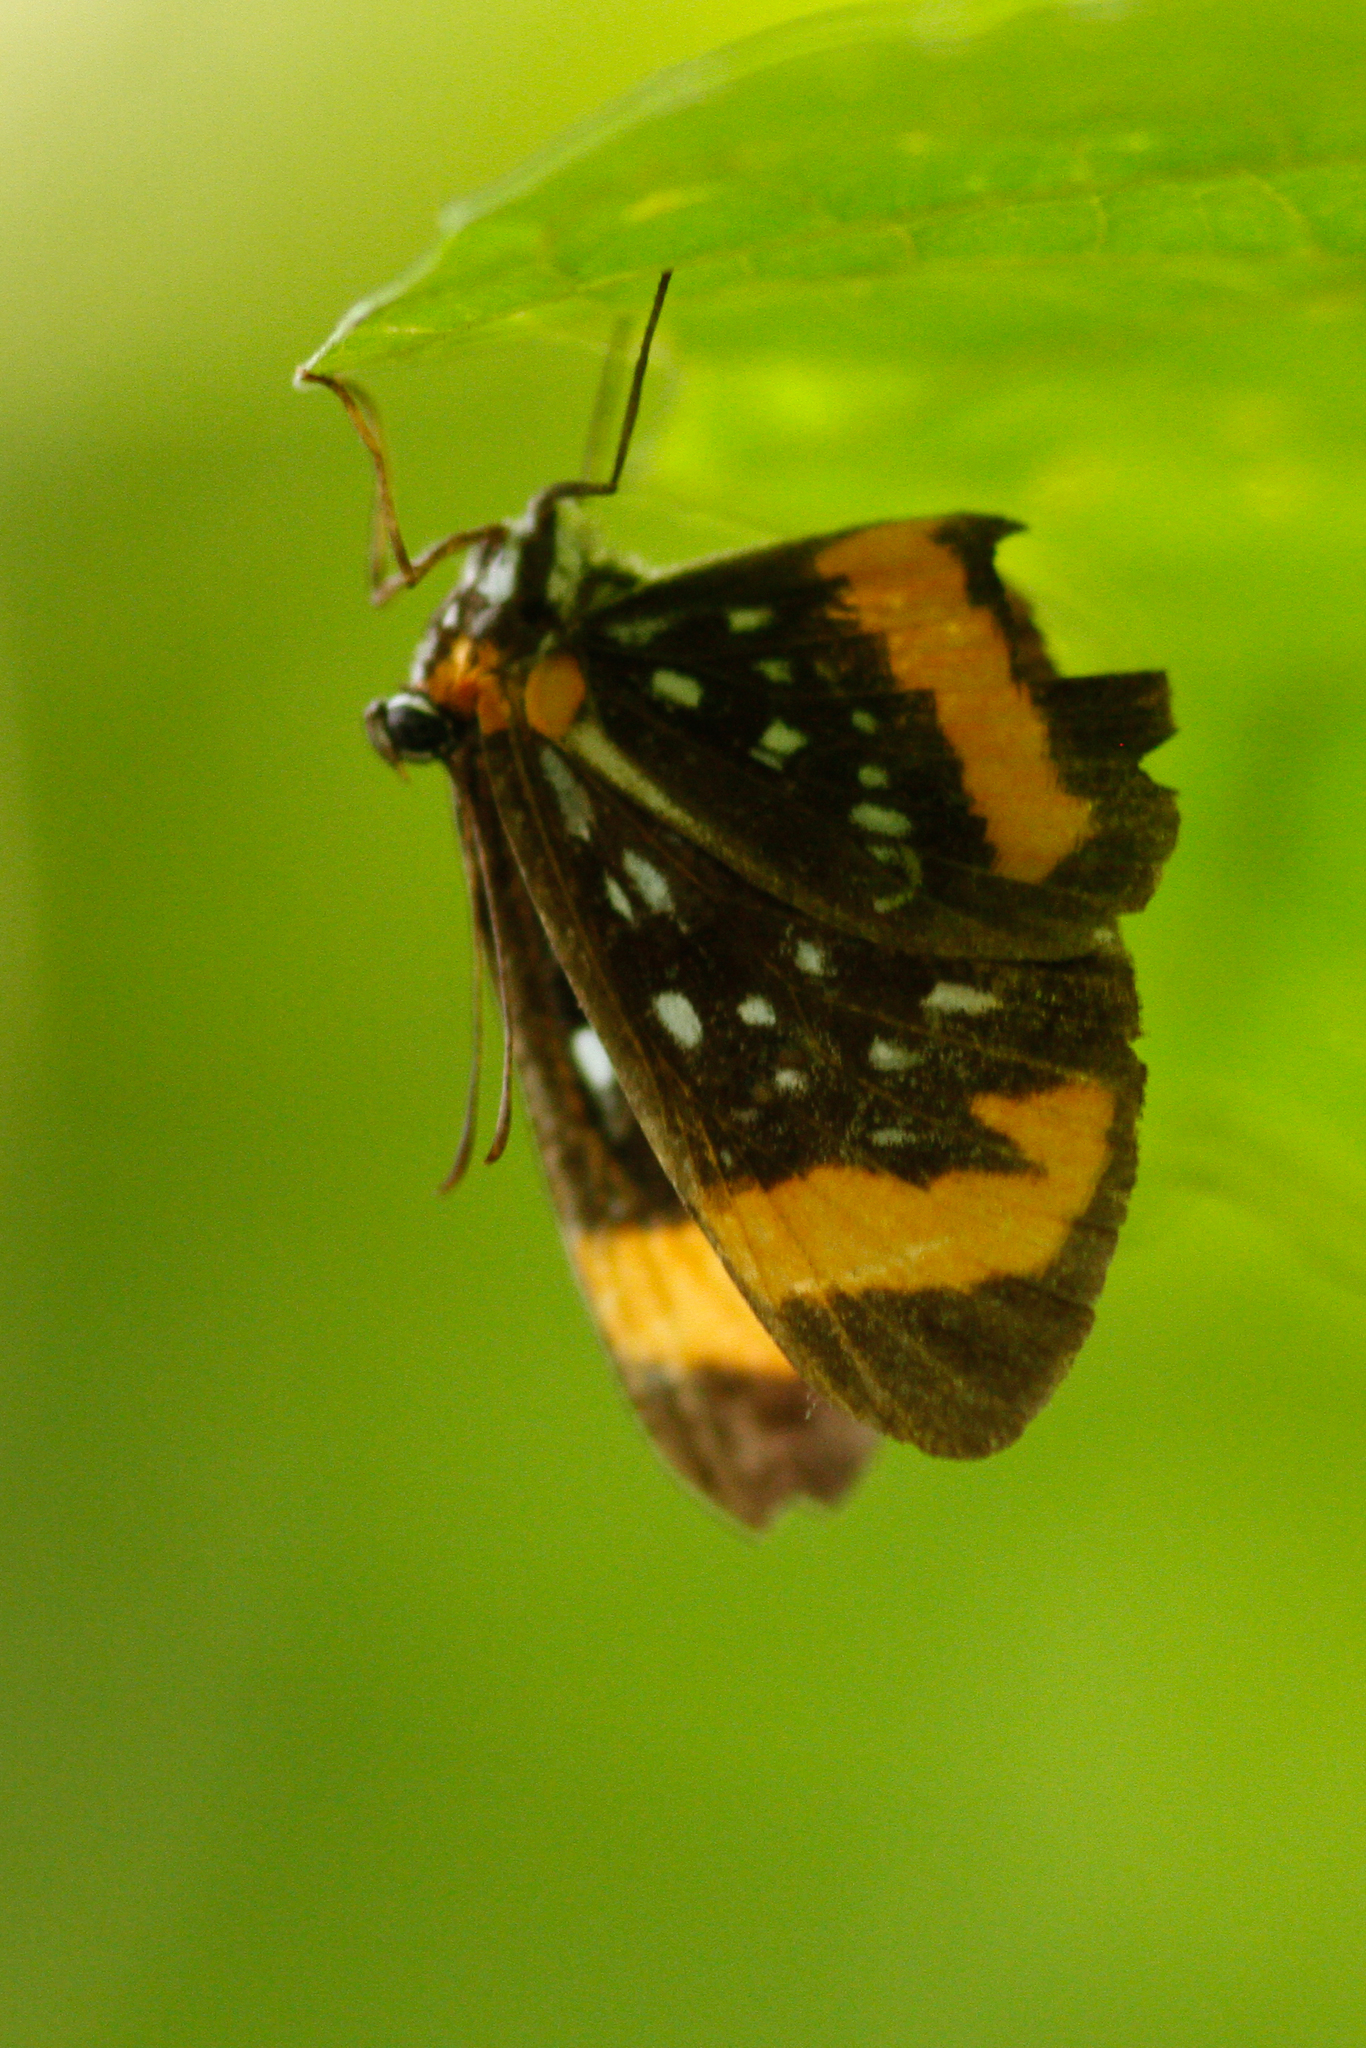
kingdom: Animalia
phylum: Arthropoda
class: Insecta
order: Lepidoptera
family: Riodinidae
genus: Stalachtis
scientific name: Stalachtis euterpe
